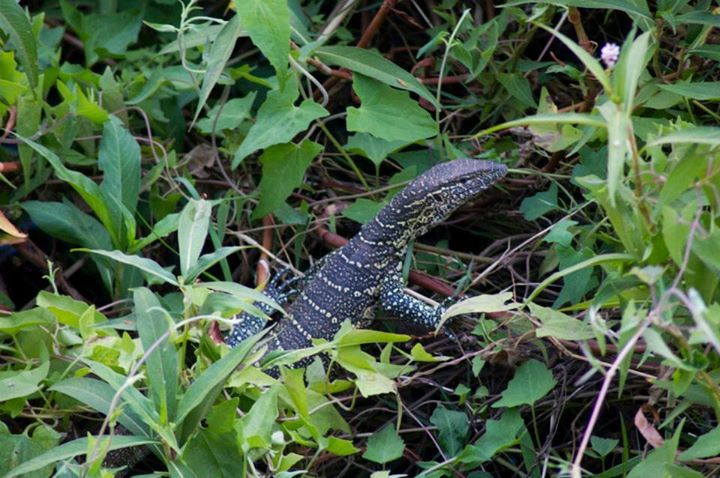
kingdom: Animalia
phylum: Chordata
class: Squamata
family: Varanidae
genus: Varanus
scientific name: Varanus niloticus
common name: Nile monitor
